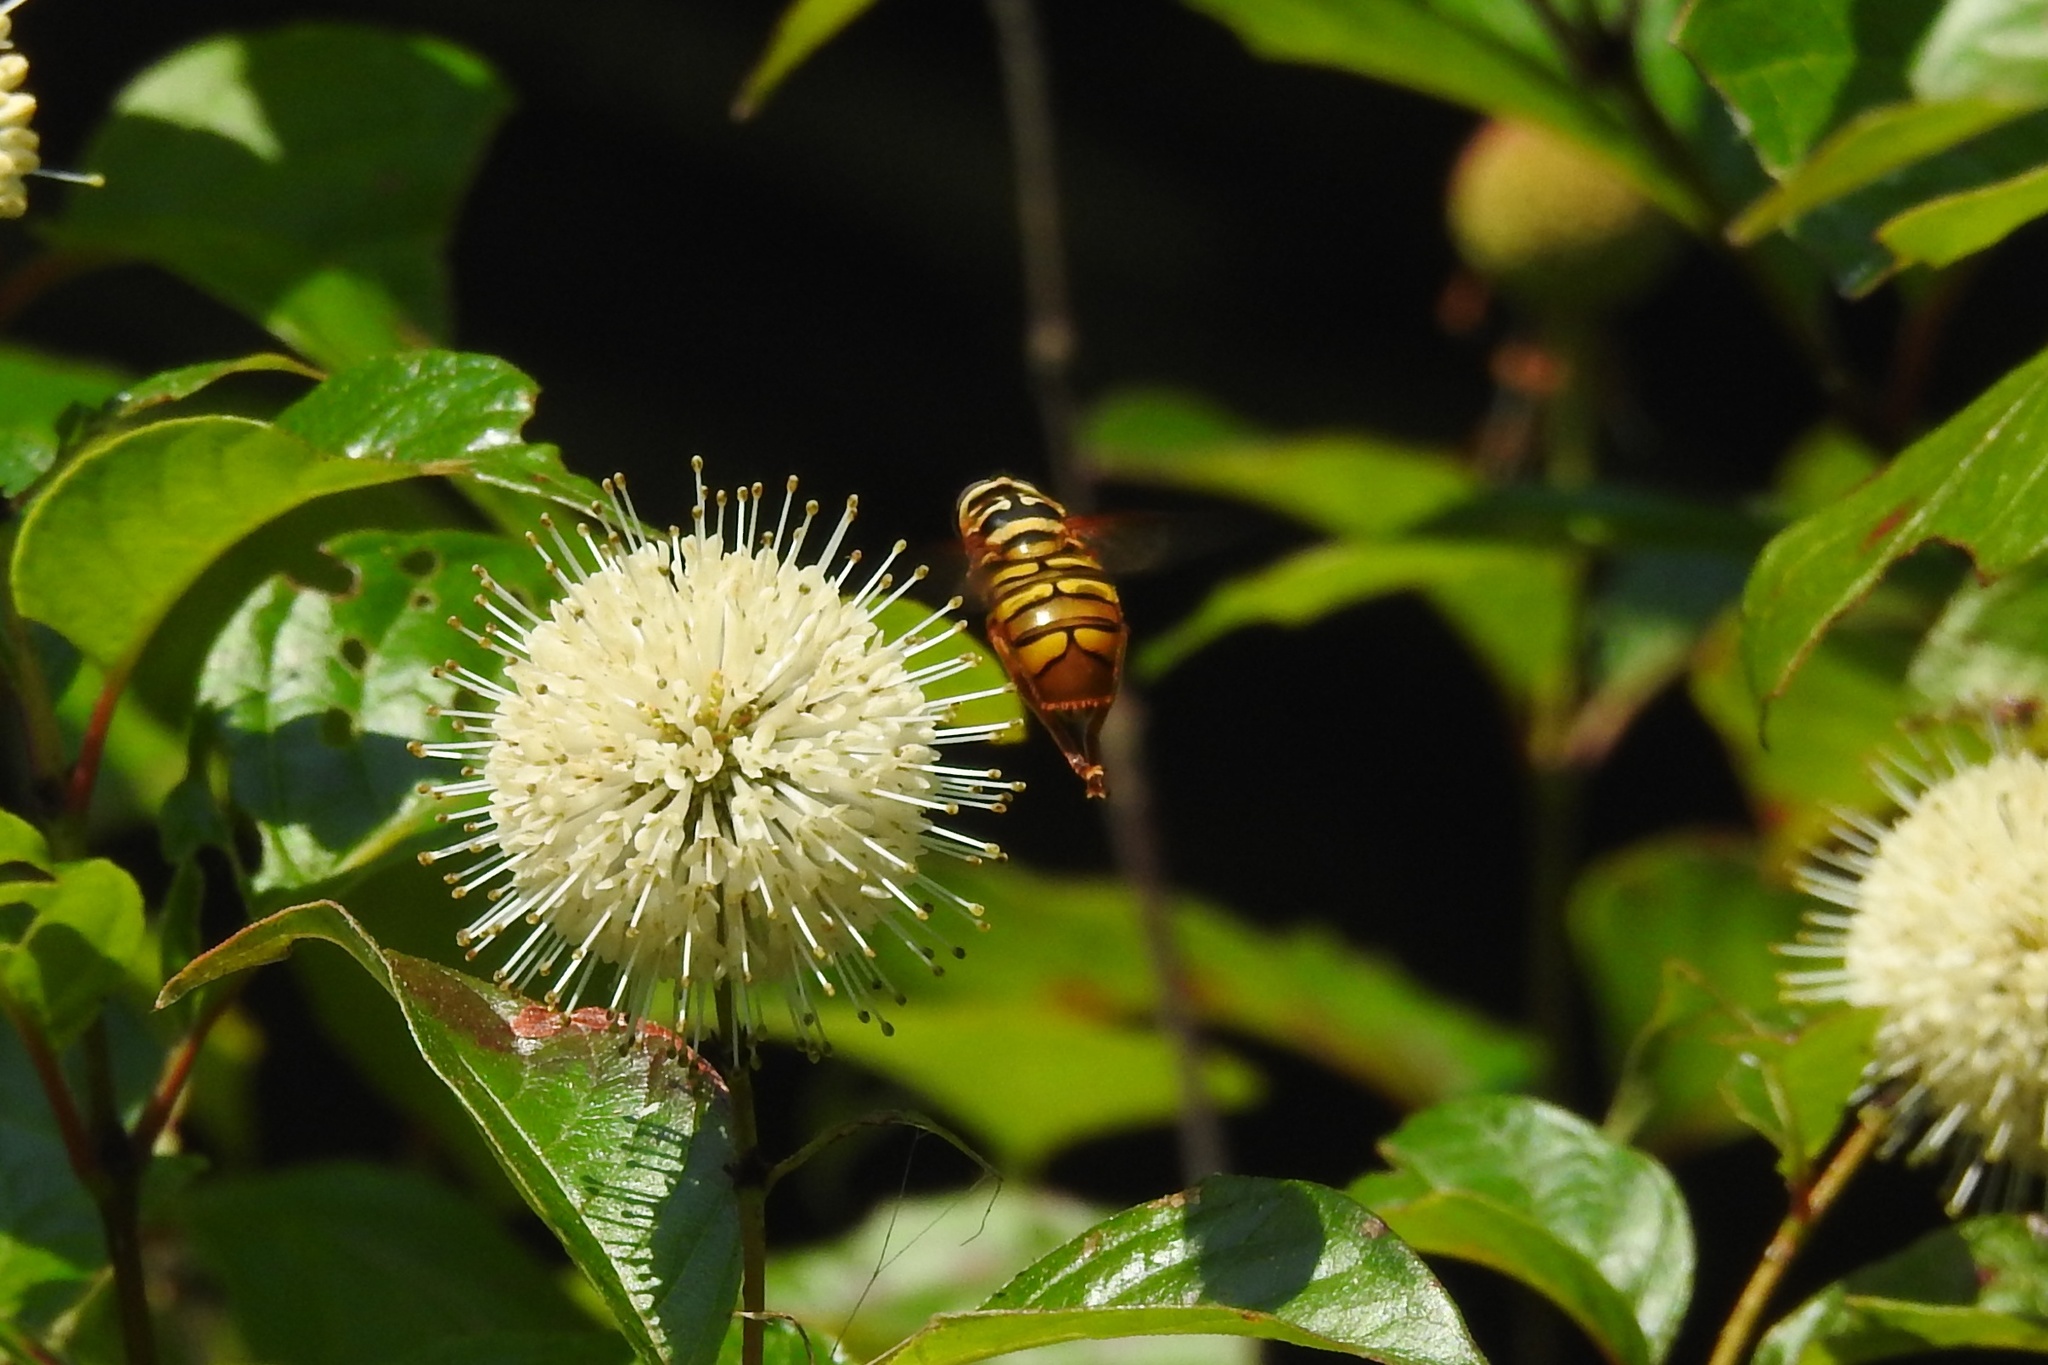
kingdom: Animalia
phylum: Arthropoda
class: Insecta
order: Diptera
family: Syrphidae
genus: Milesia
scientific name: Milesia virginiensis
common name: Virginia giant
